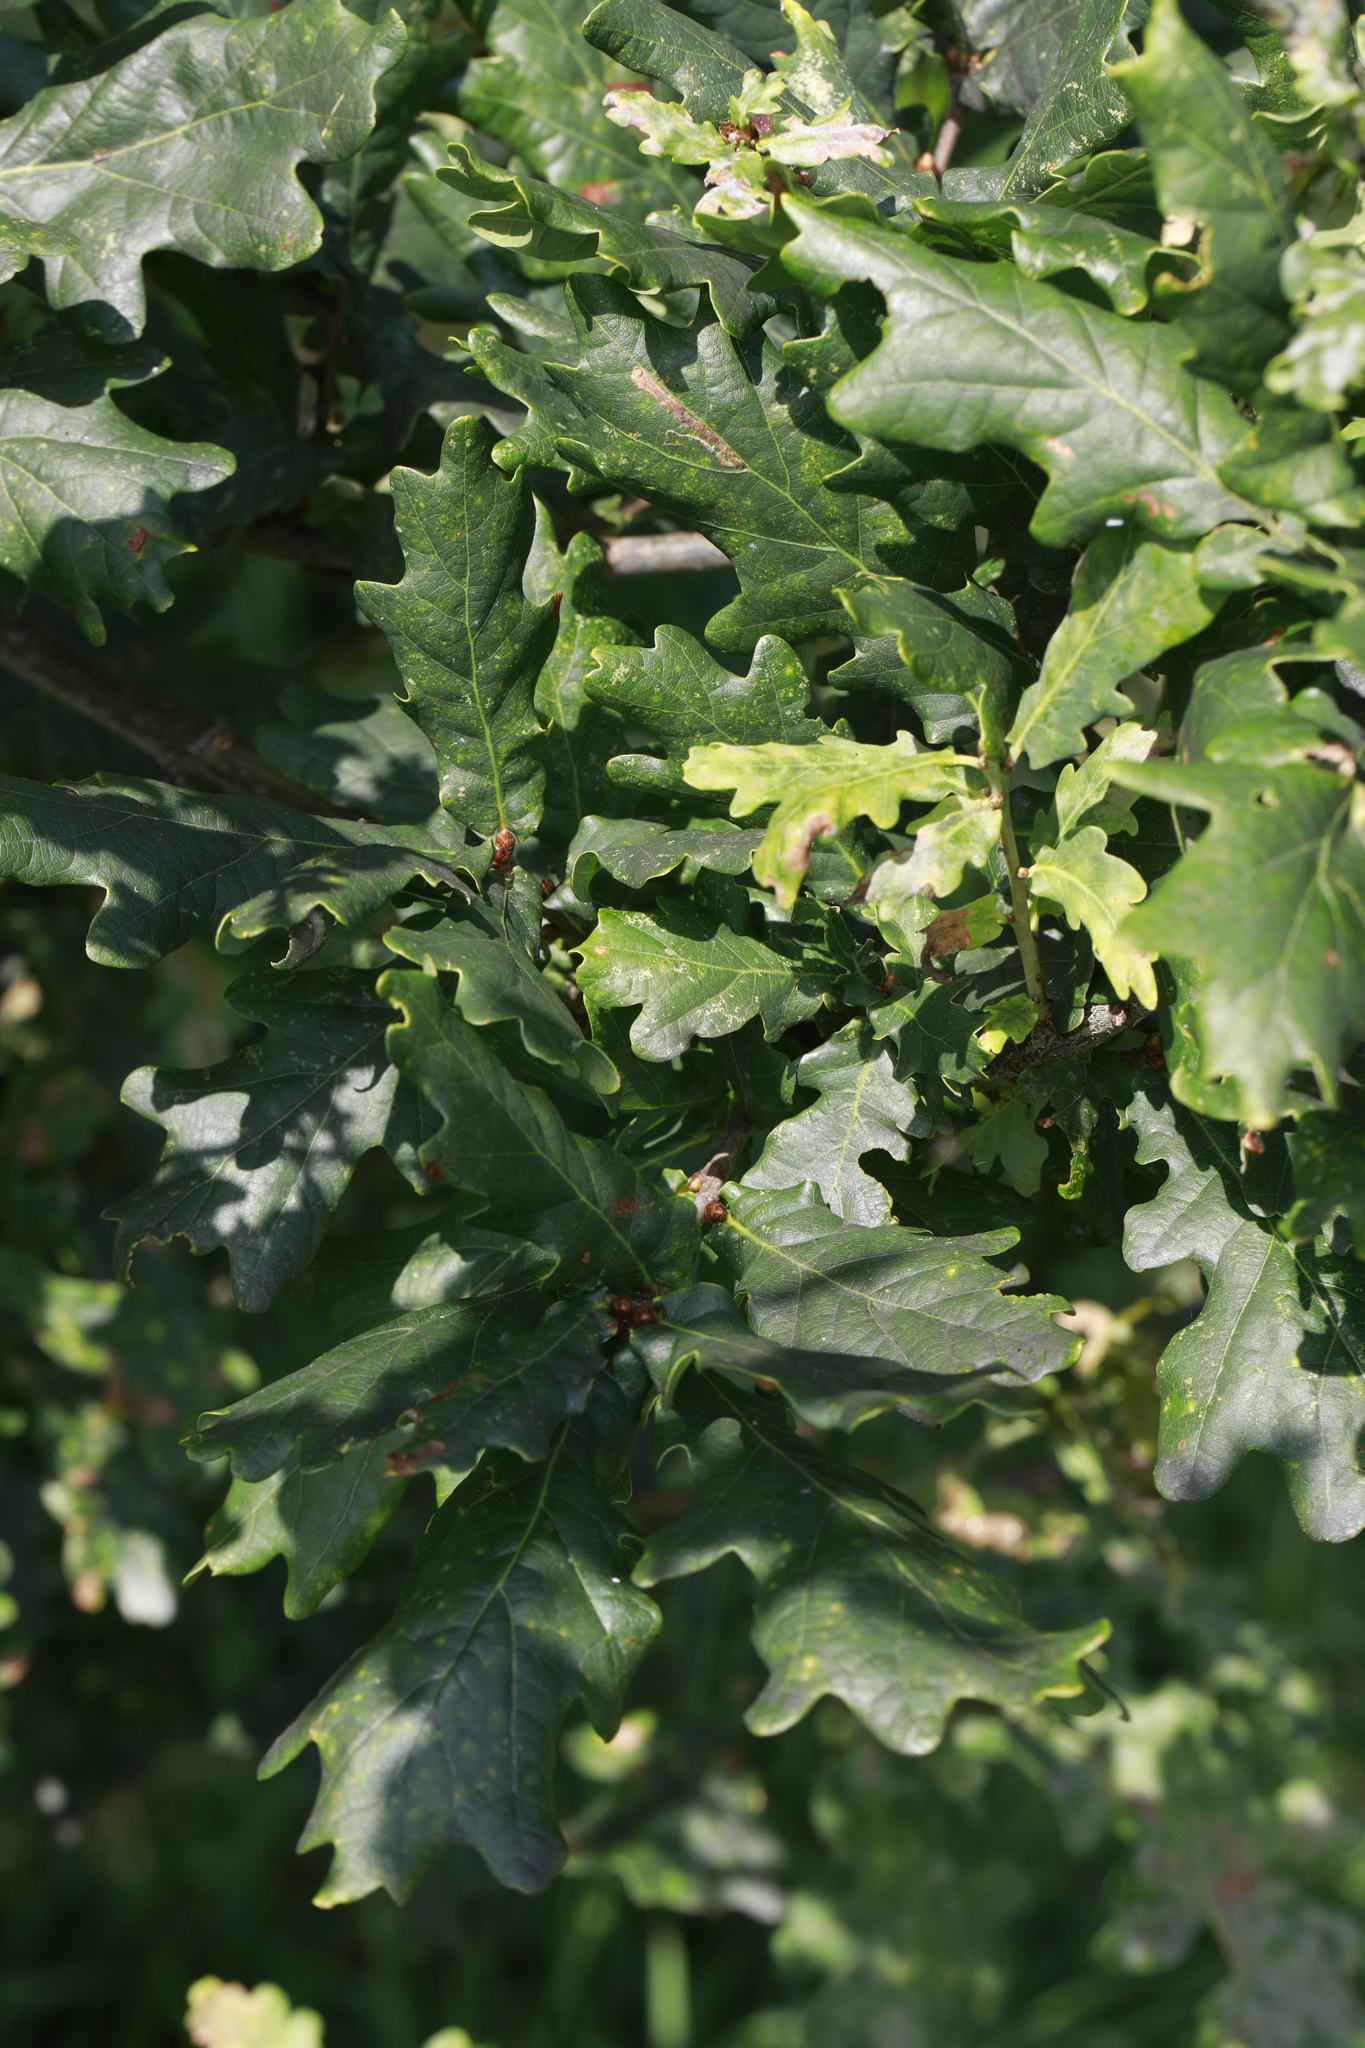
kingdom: Plantae
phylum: Tracheophyta
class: Magnoliopsida
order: Fagales
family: Fagaceae
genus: Quercus
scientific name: Quercus robur
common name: Pedunculate oak
